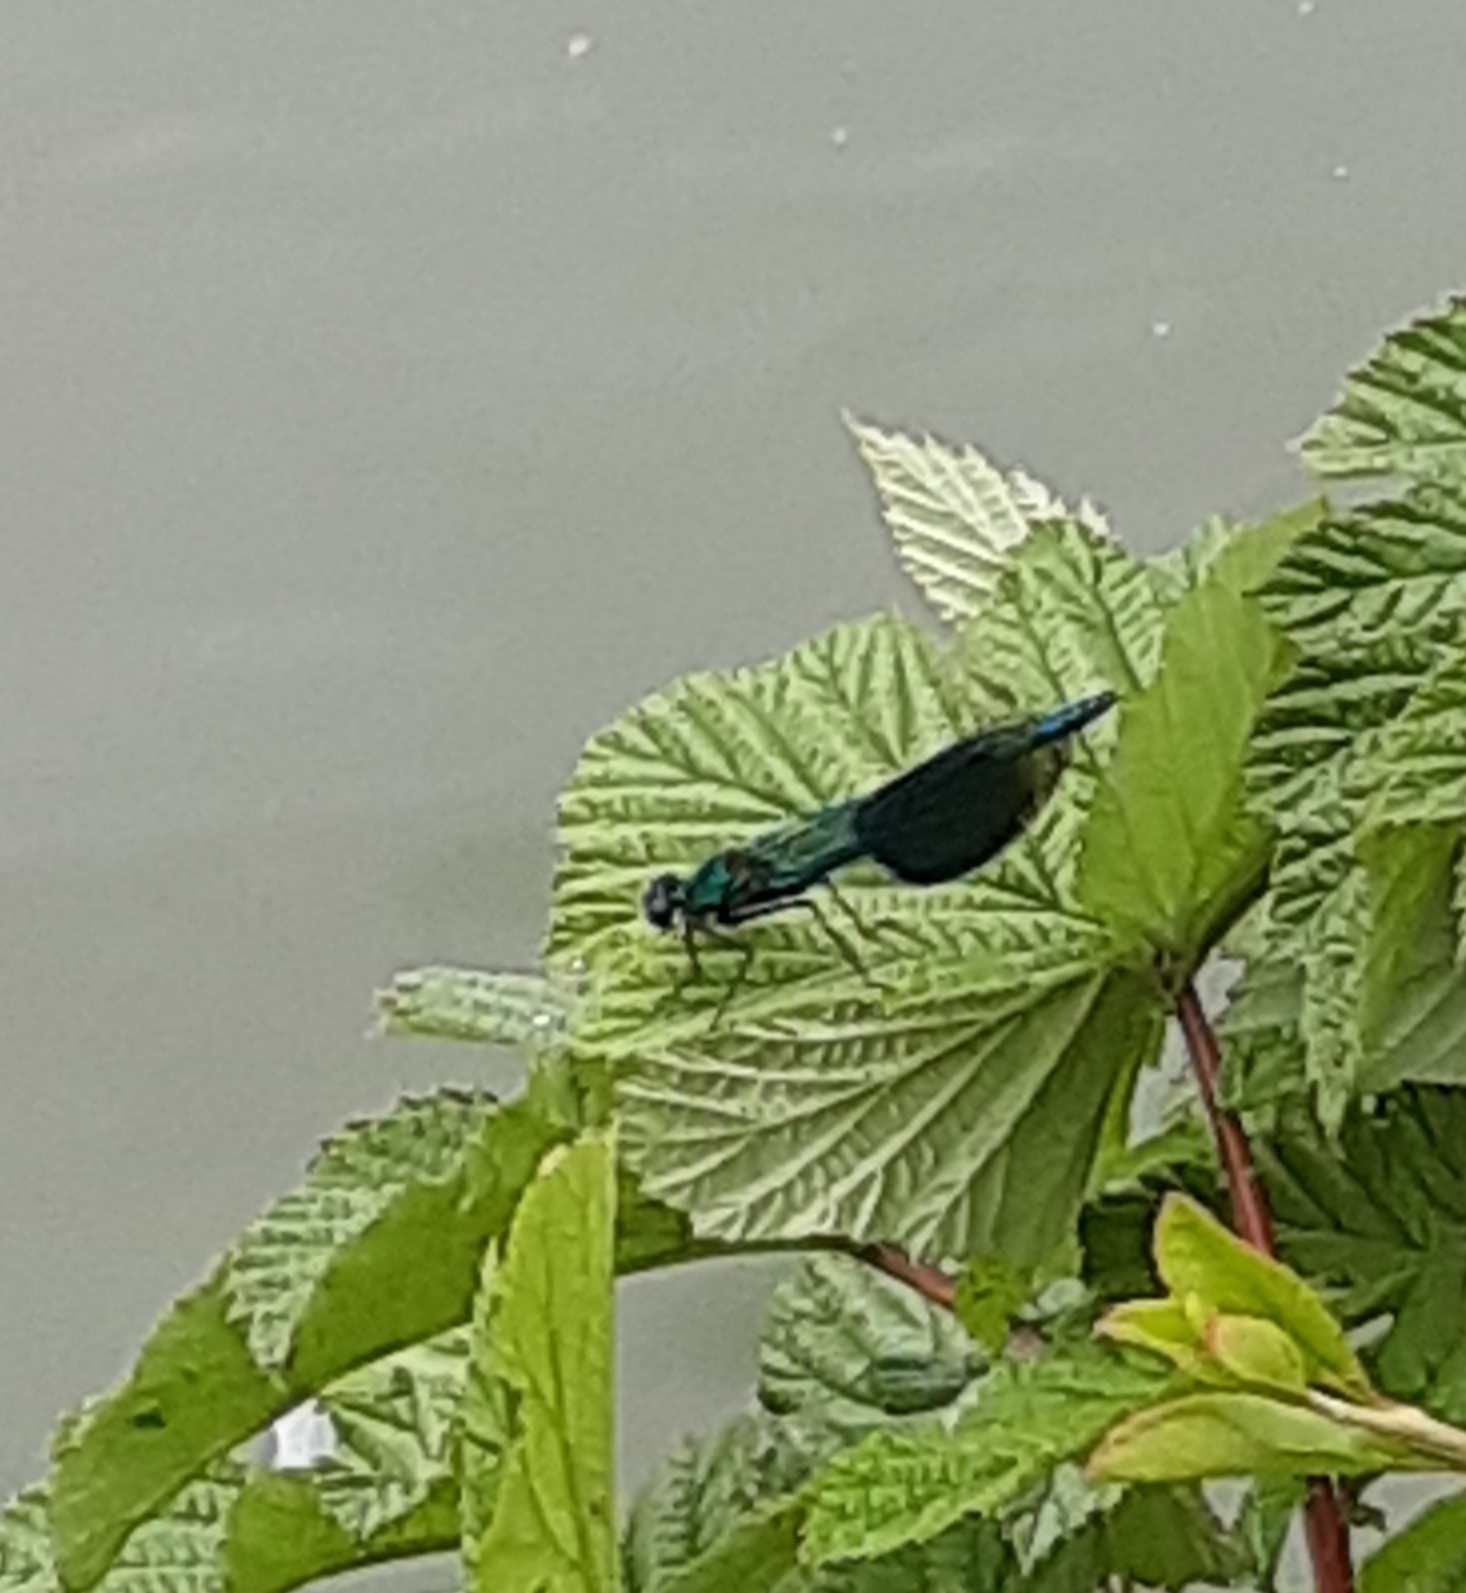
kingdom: Animalia
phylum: Arthropoda
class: Insecta
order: Odonata
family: Calopterygidae
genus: Calopteryx
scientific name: Calopteryx splendens
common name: Banded demoiselle
